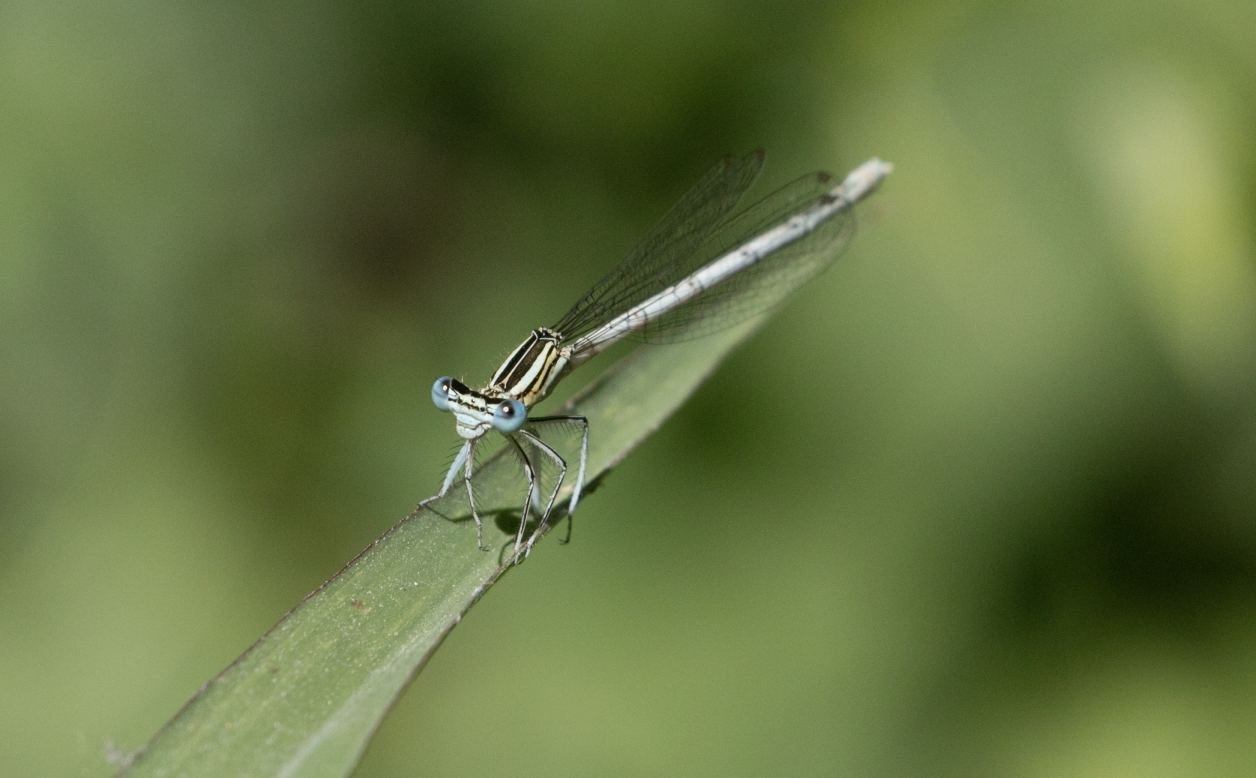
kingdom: Animalia
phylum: Arthropoda
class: Insecta
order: Odonata
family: Platycnemididae
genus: Platycnemis
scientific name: Platycnemis pennipes
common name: White-legged damselfly
